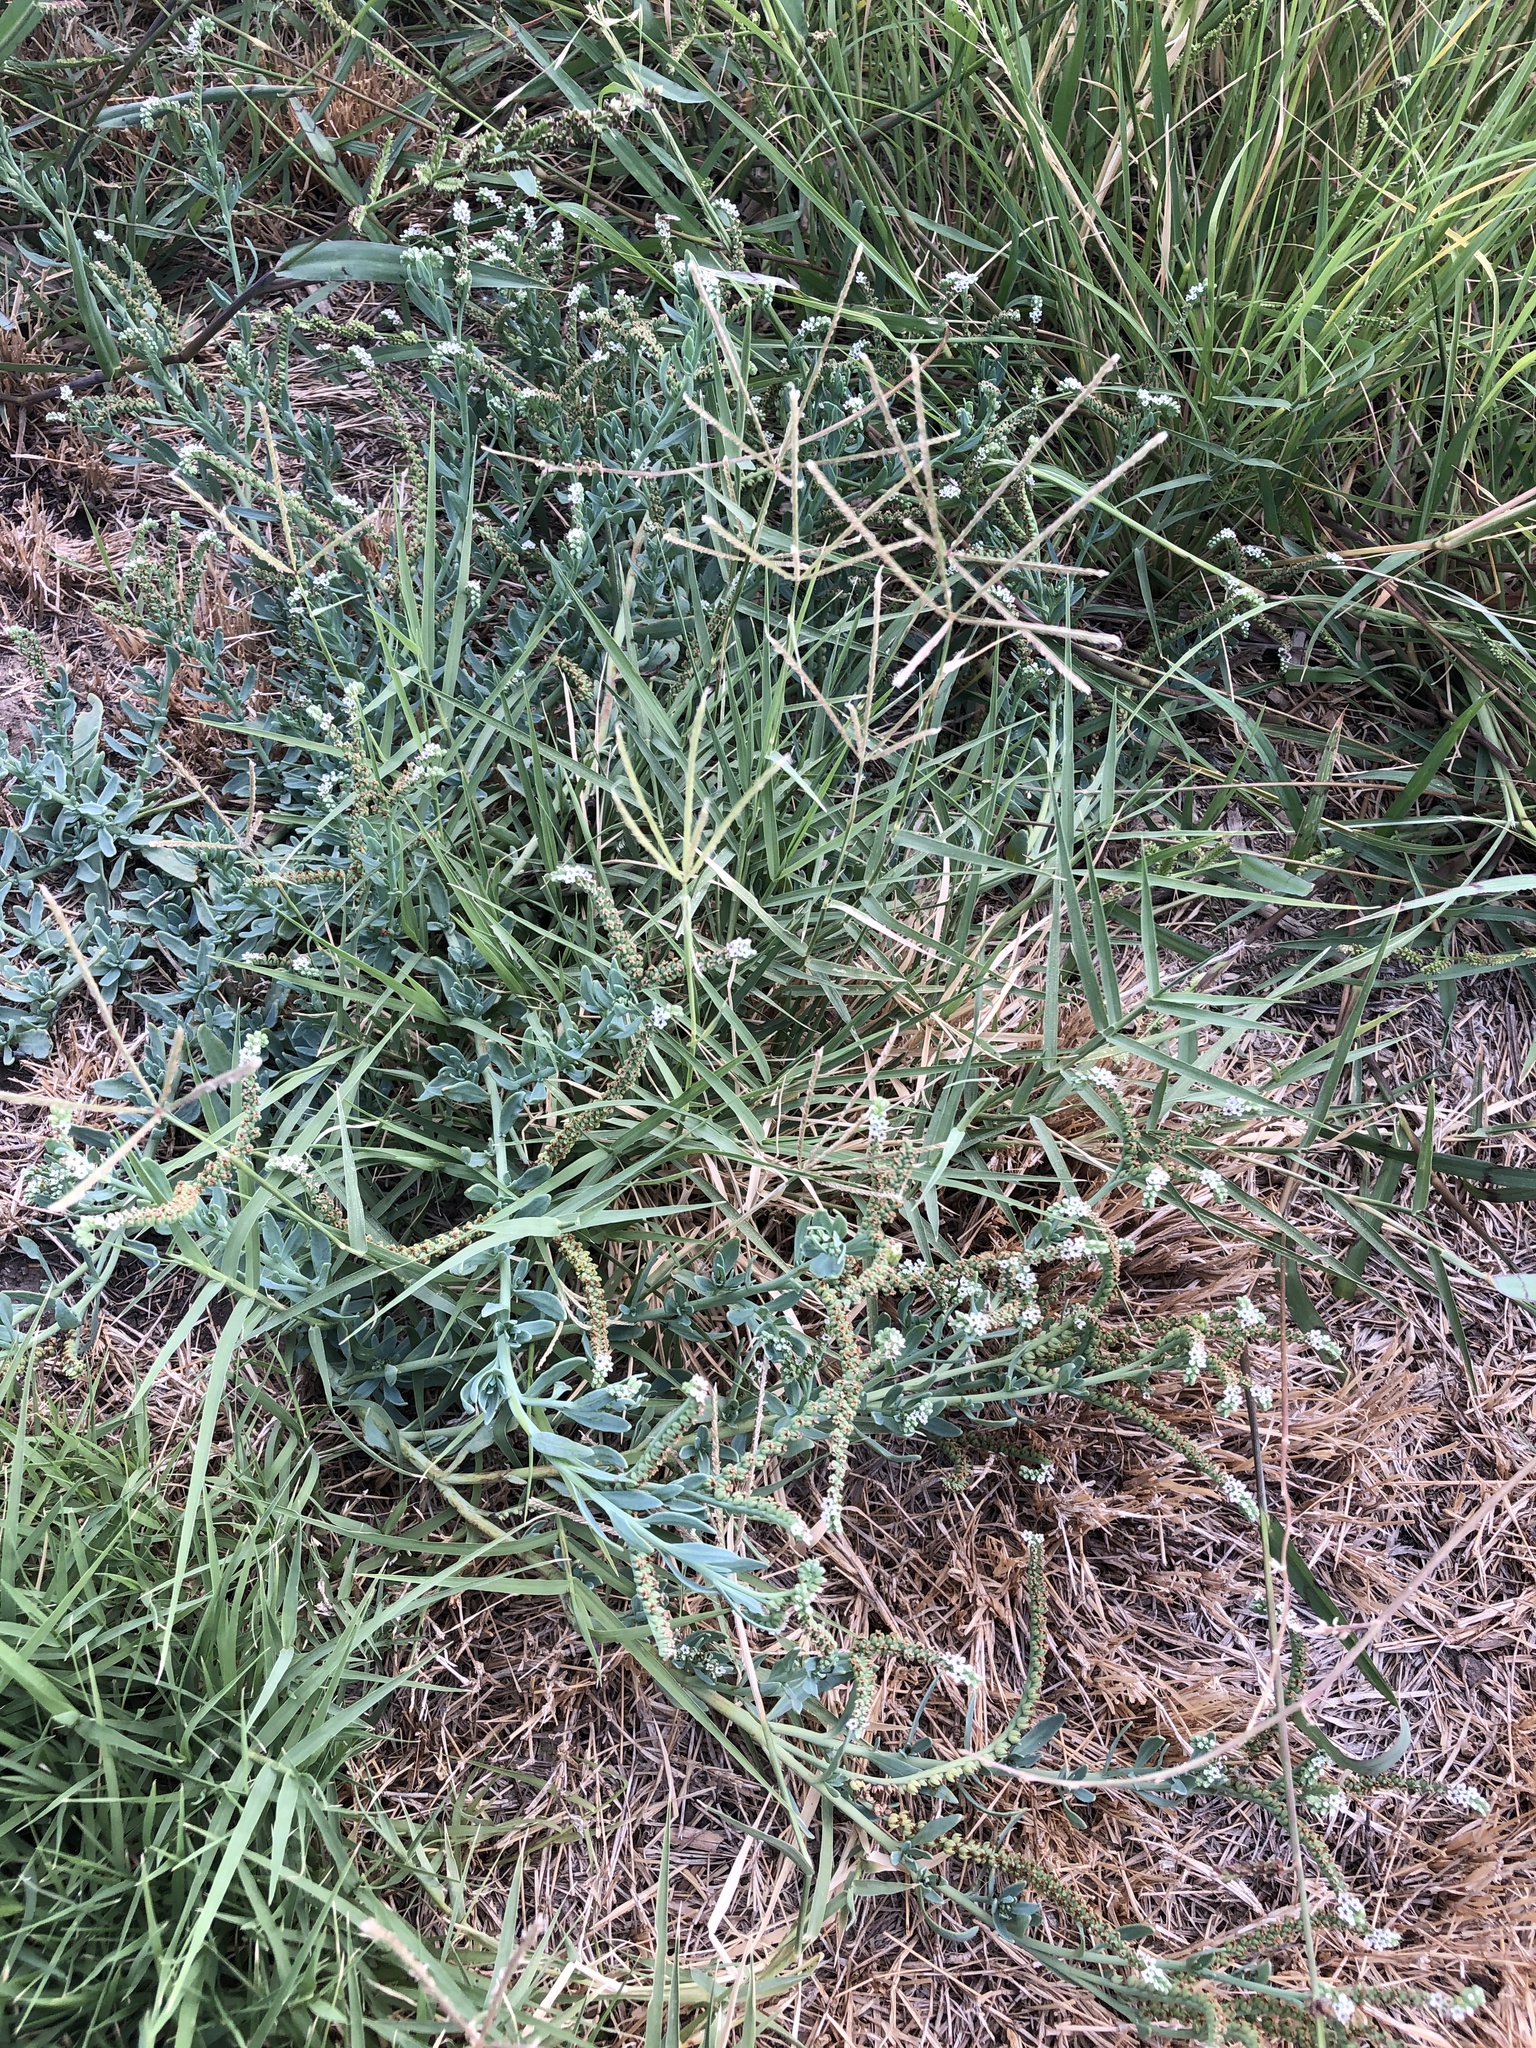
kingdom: Plantae
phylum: Tracheophyta
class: Magnoliopsida
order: Boraginales
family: Heliotropiaceae
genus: Heliotropium
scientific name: Heliotropium curassavicum
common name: Seaside heliotrope
